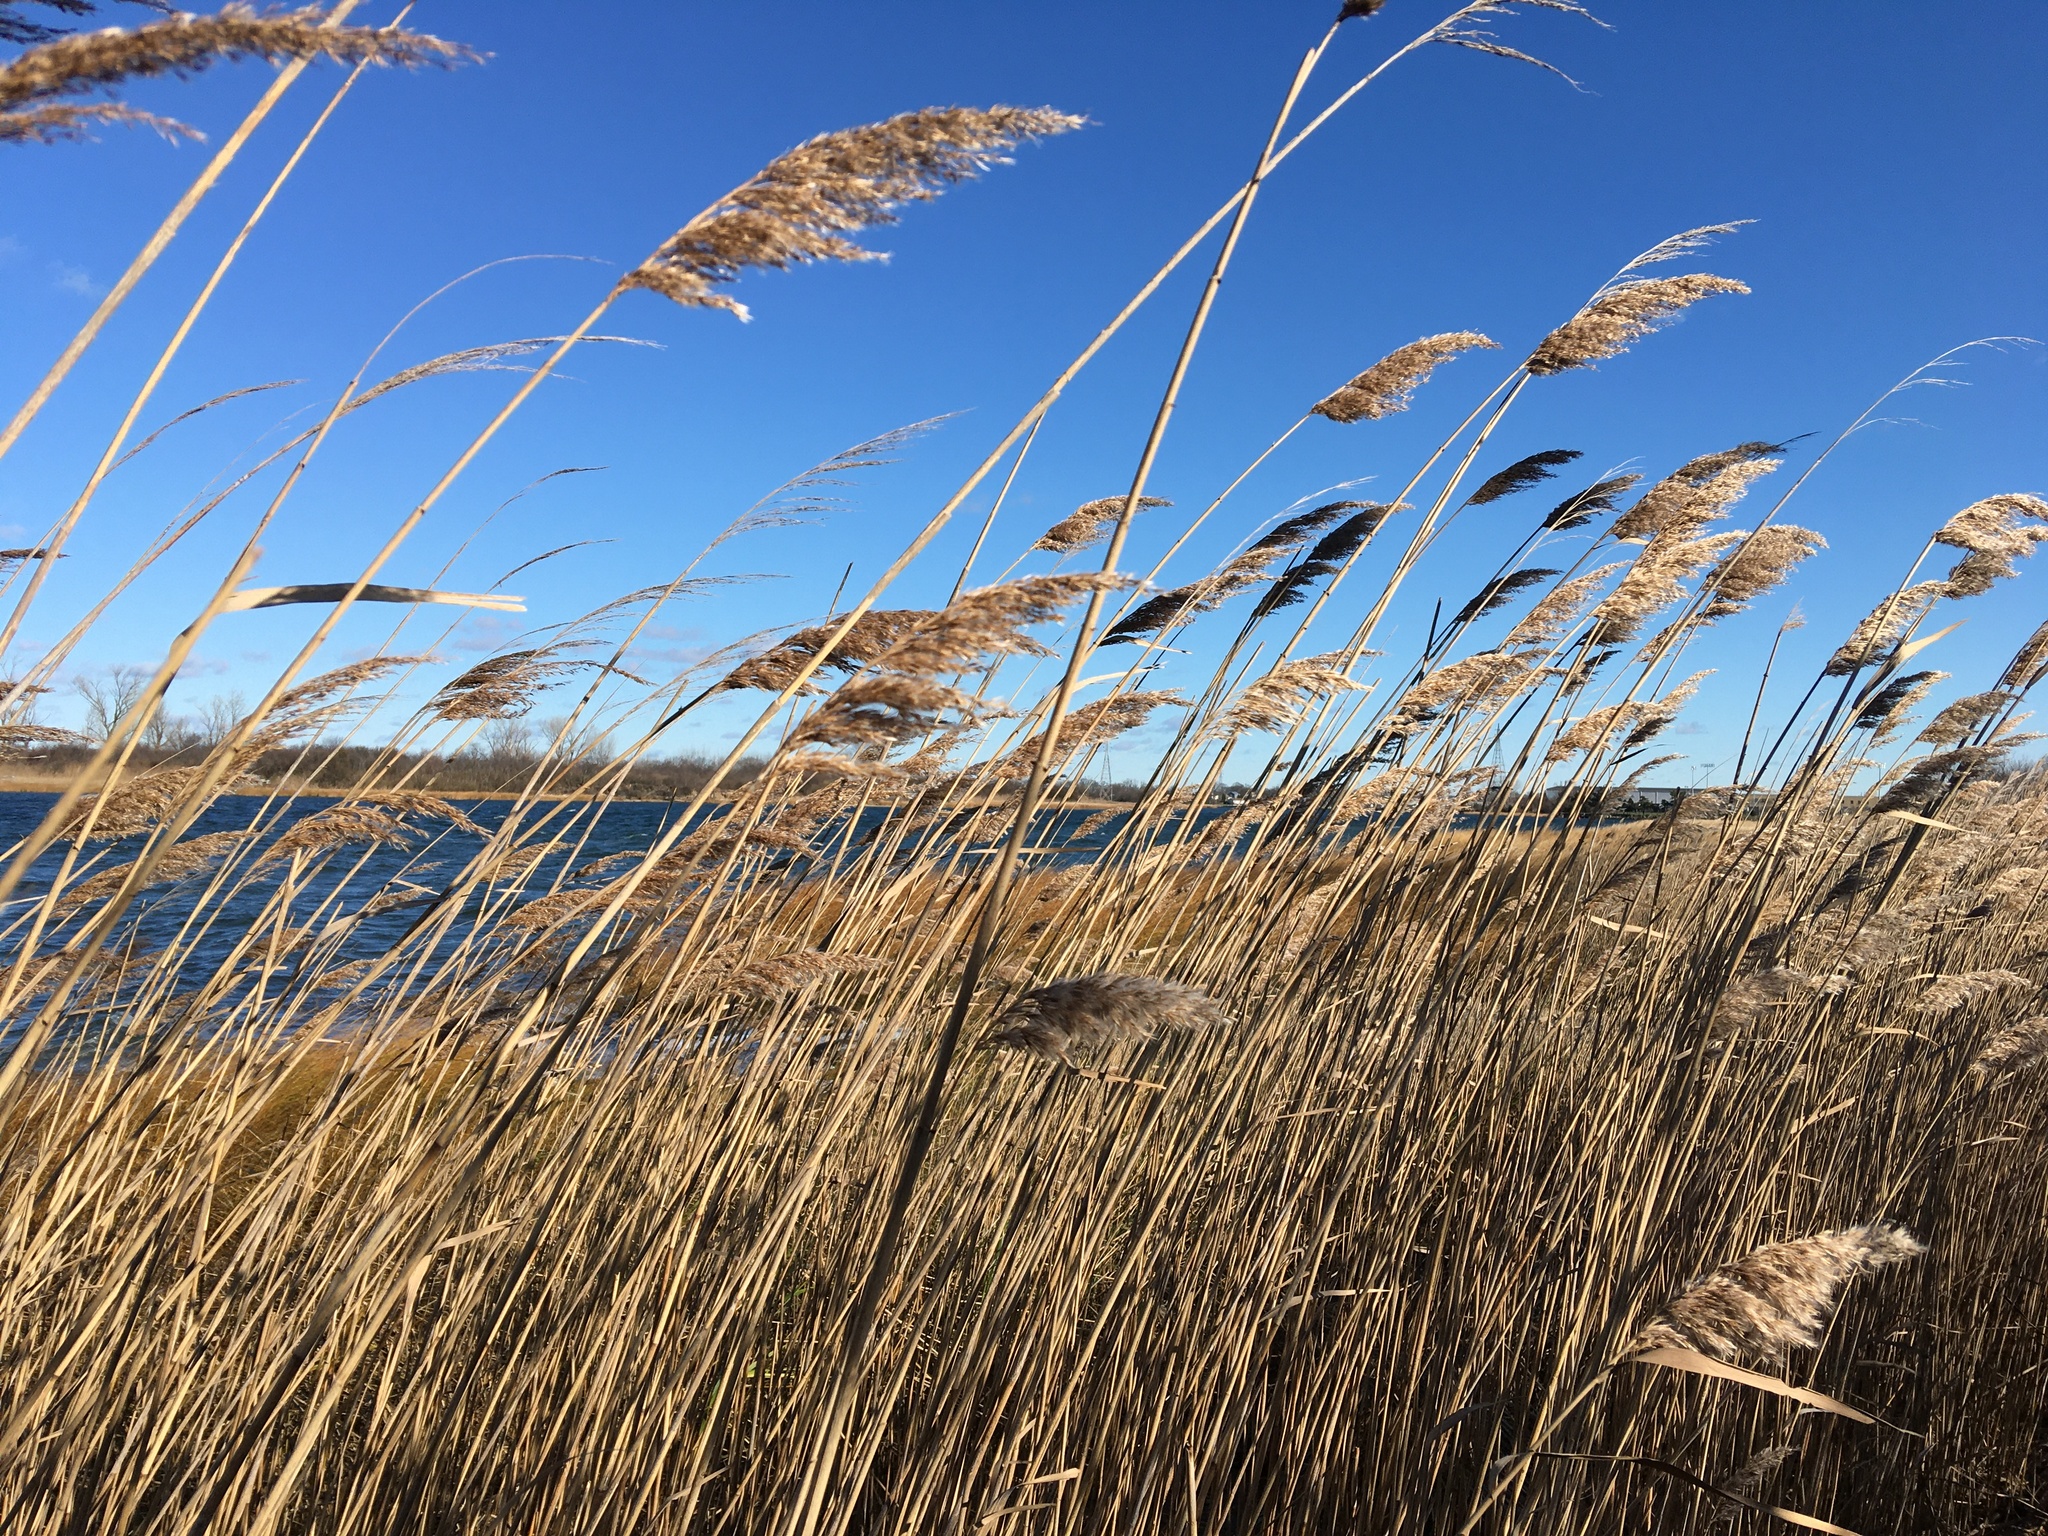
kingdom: Plantae
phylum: Tracheophyta
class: Liliopsida
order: Poales
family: Poaceae
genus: Phragmites
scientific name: Phragmites australis
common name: Common reed
